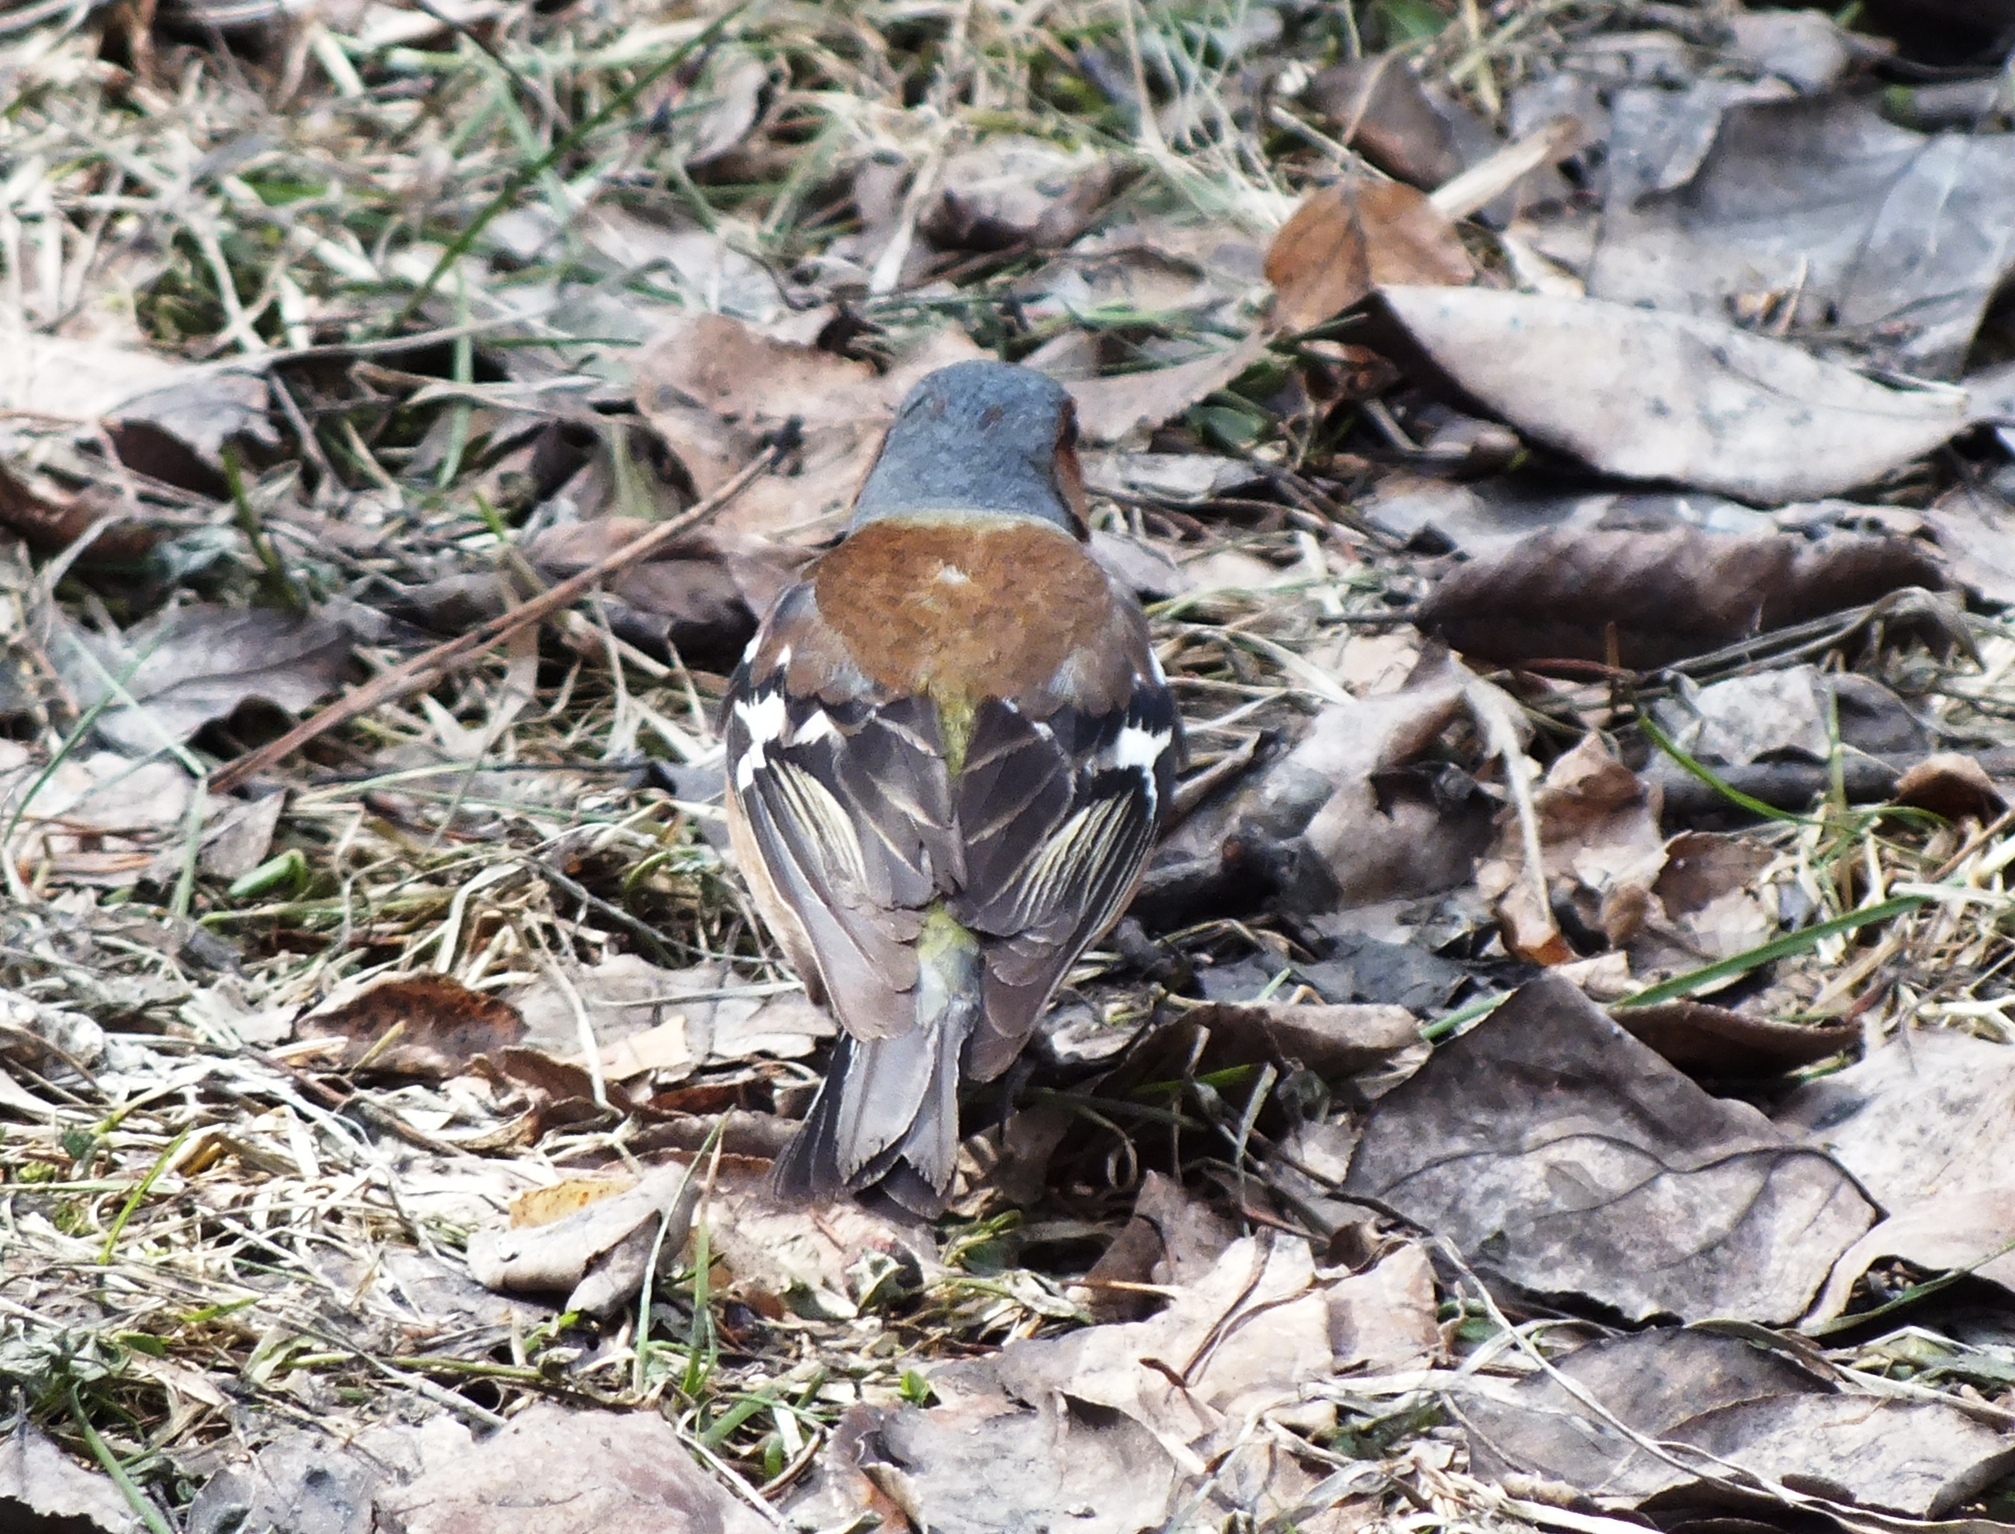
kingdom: Animalia
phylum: Chordata
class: Aves
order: Passeriformes
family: Fringillidae
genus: Fringilla
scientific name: Fringilla coelebs
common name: Common chaffinch
